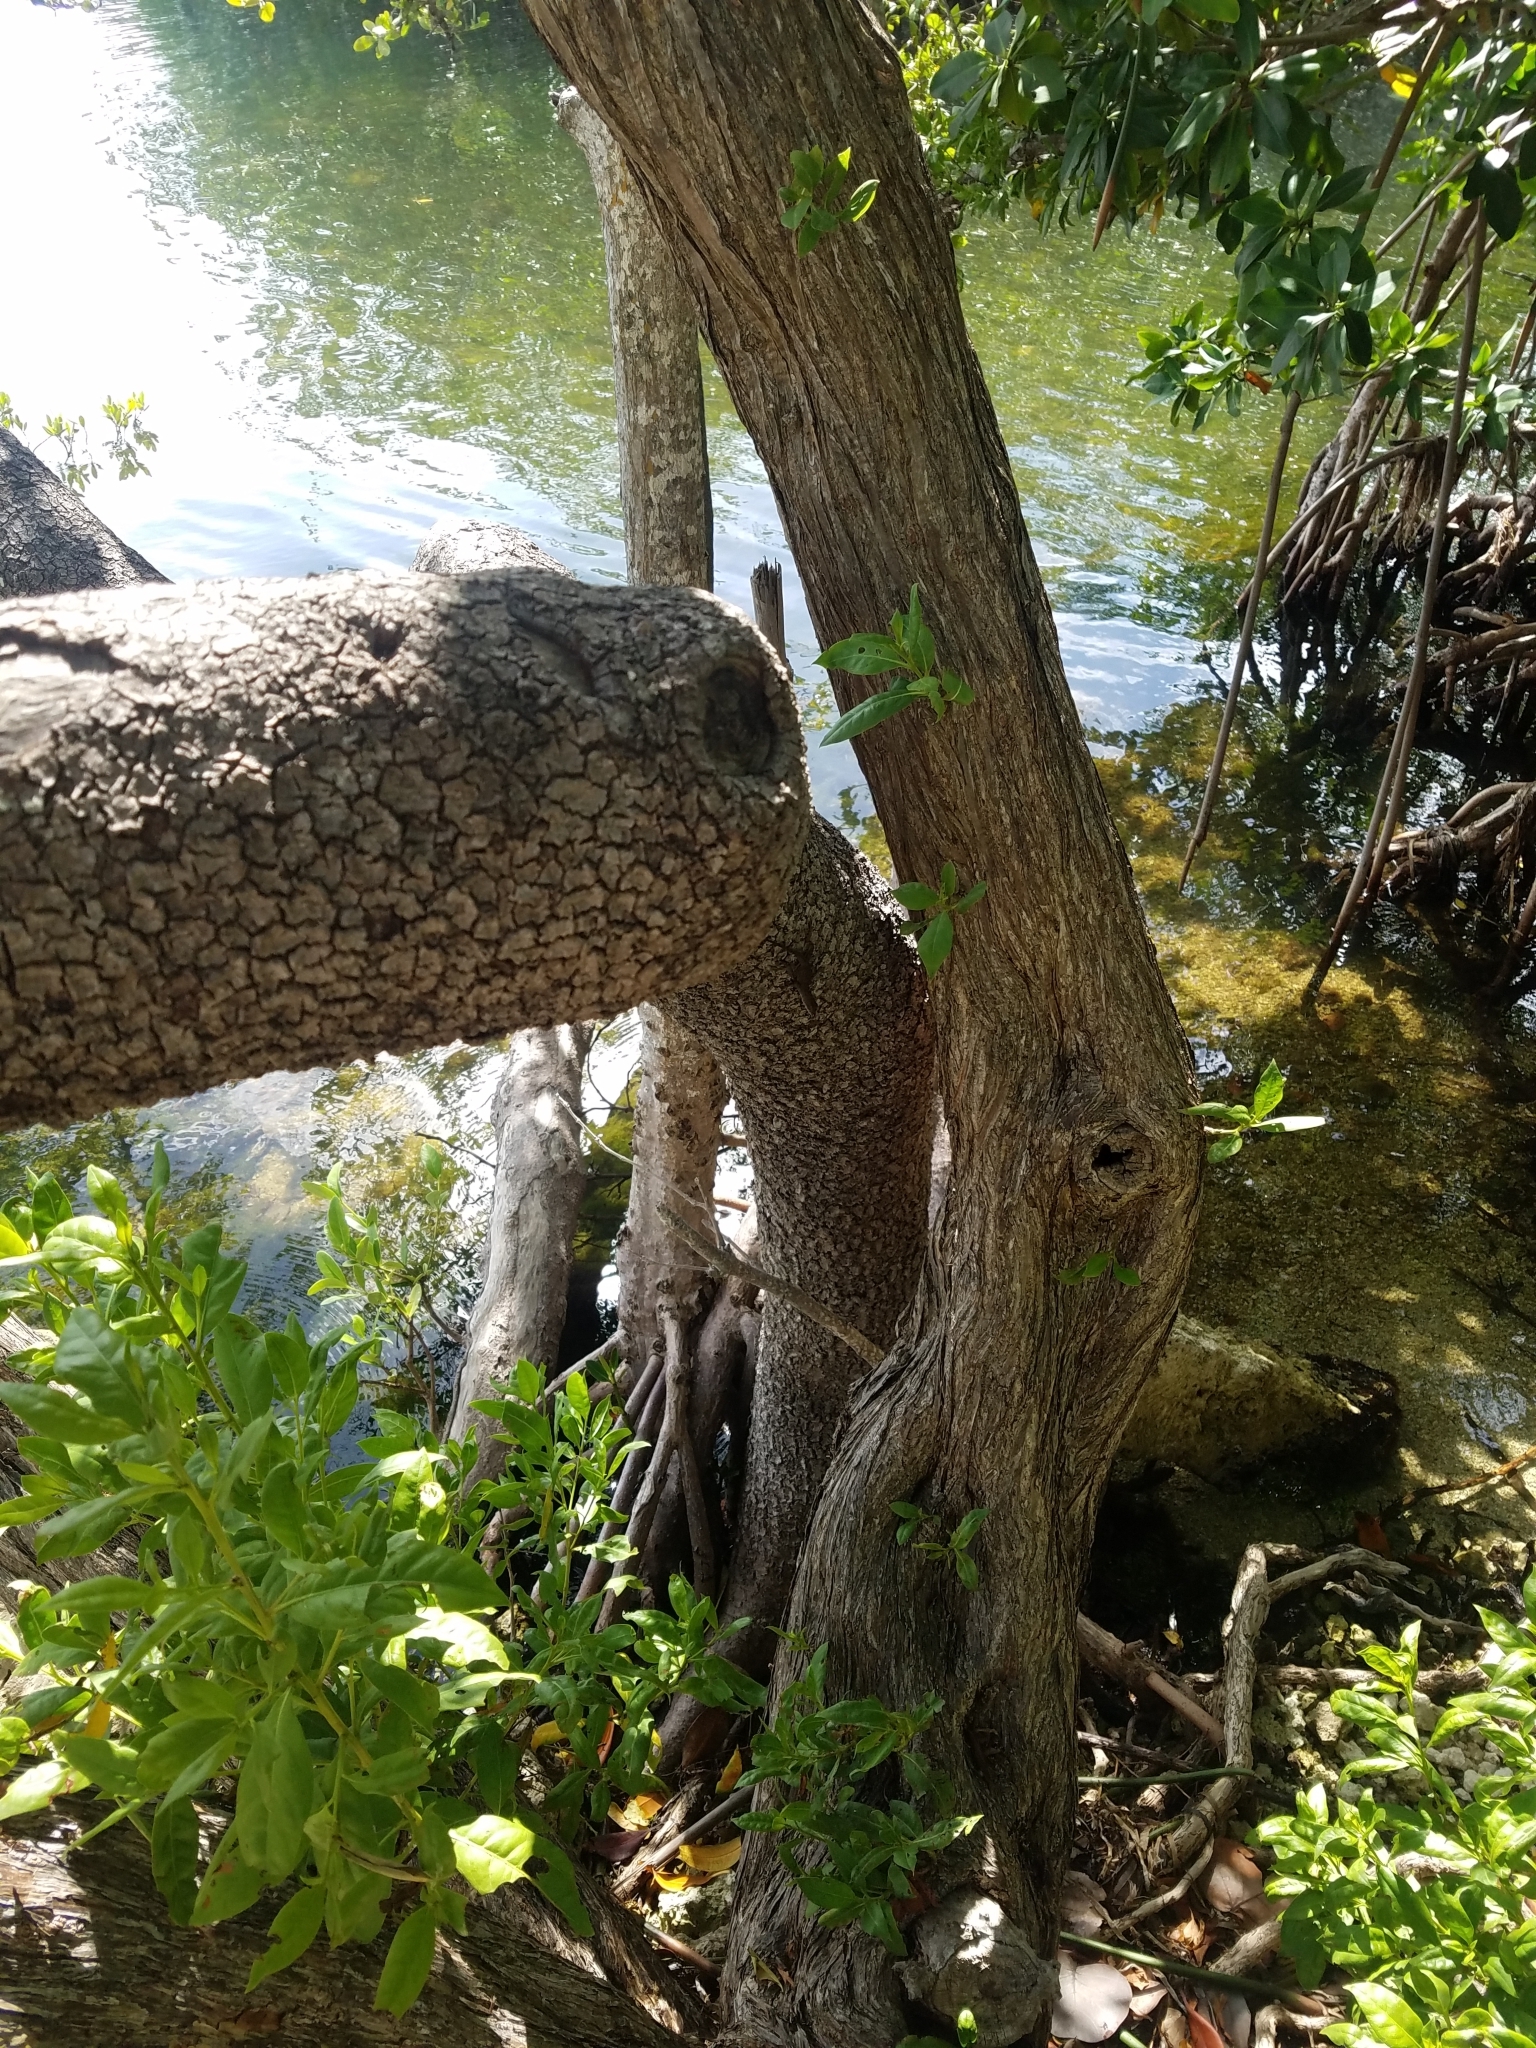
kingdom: Plantae
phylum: Tracheophyta
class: Magnoliopsida
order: Myrtales
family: Combretaceae
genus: Conocarpus
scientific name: Conocarpus erectus
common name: Button mangrove
